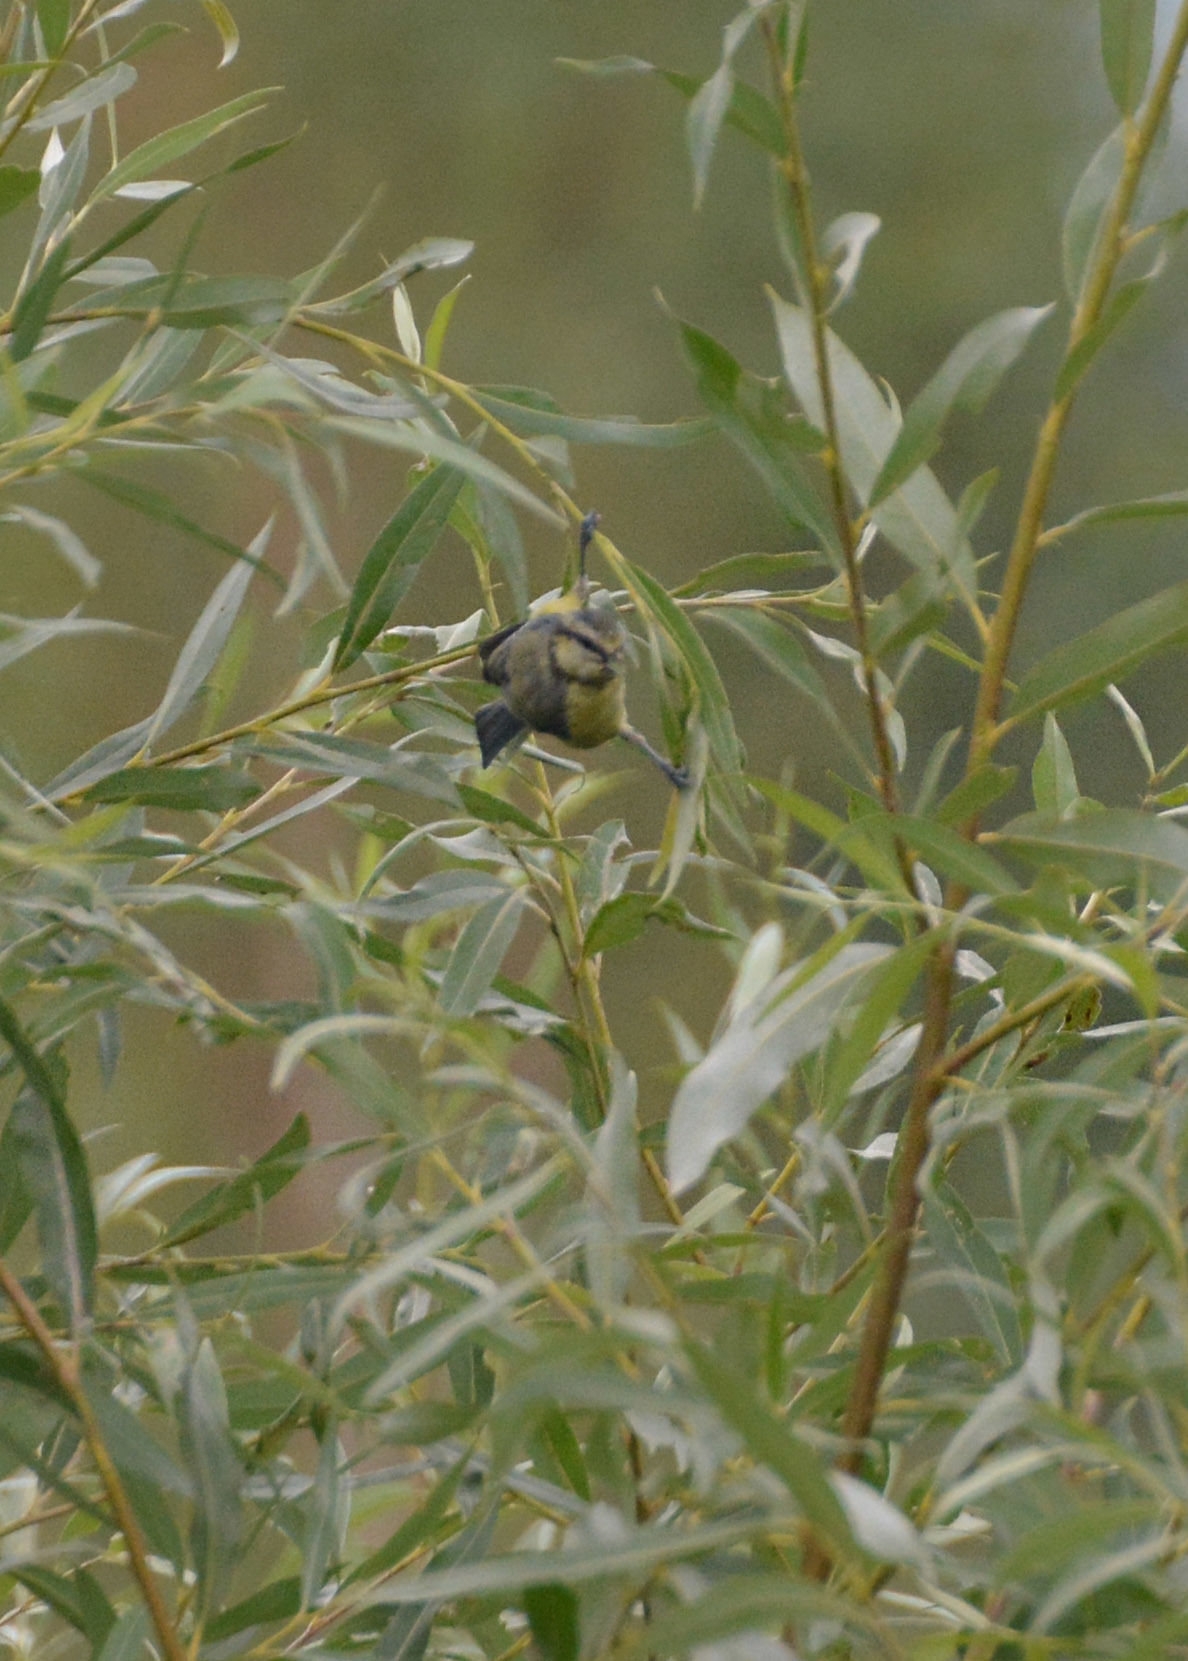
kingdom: Animalia
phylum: Chordata
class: Aves
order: Passeriformes
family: Paridae
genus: Cyanistes
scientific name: Cyanistes caeruleus
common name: Eurasian blue tit
